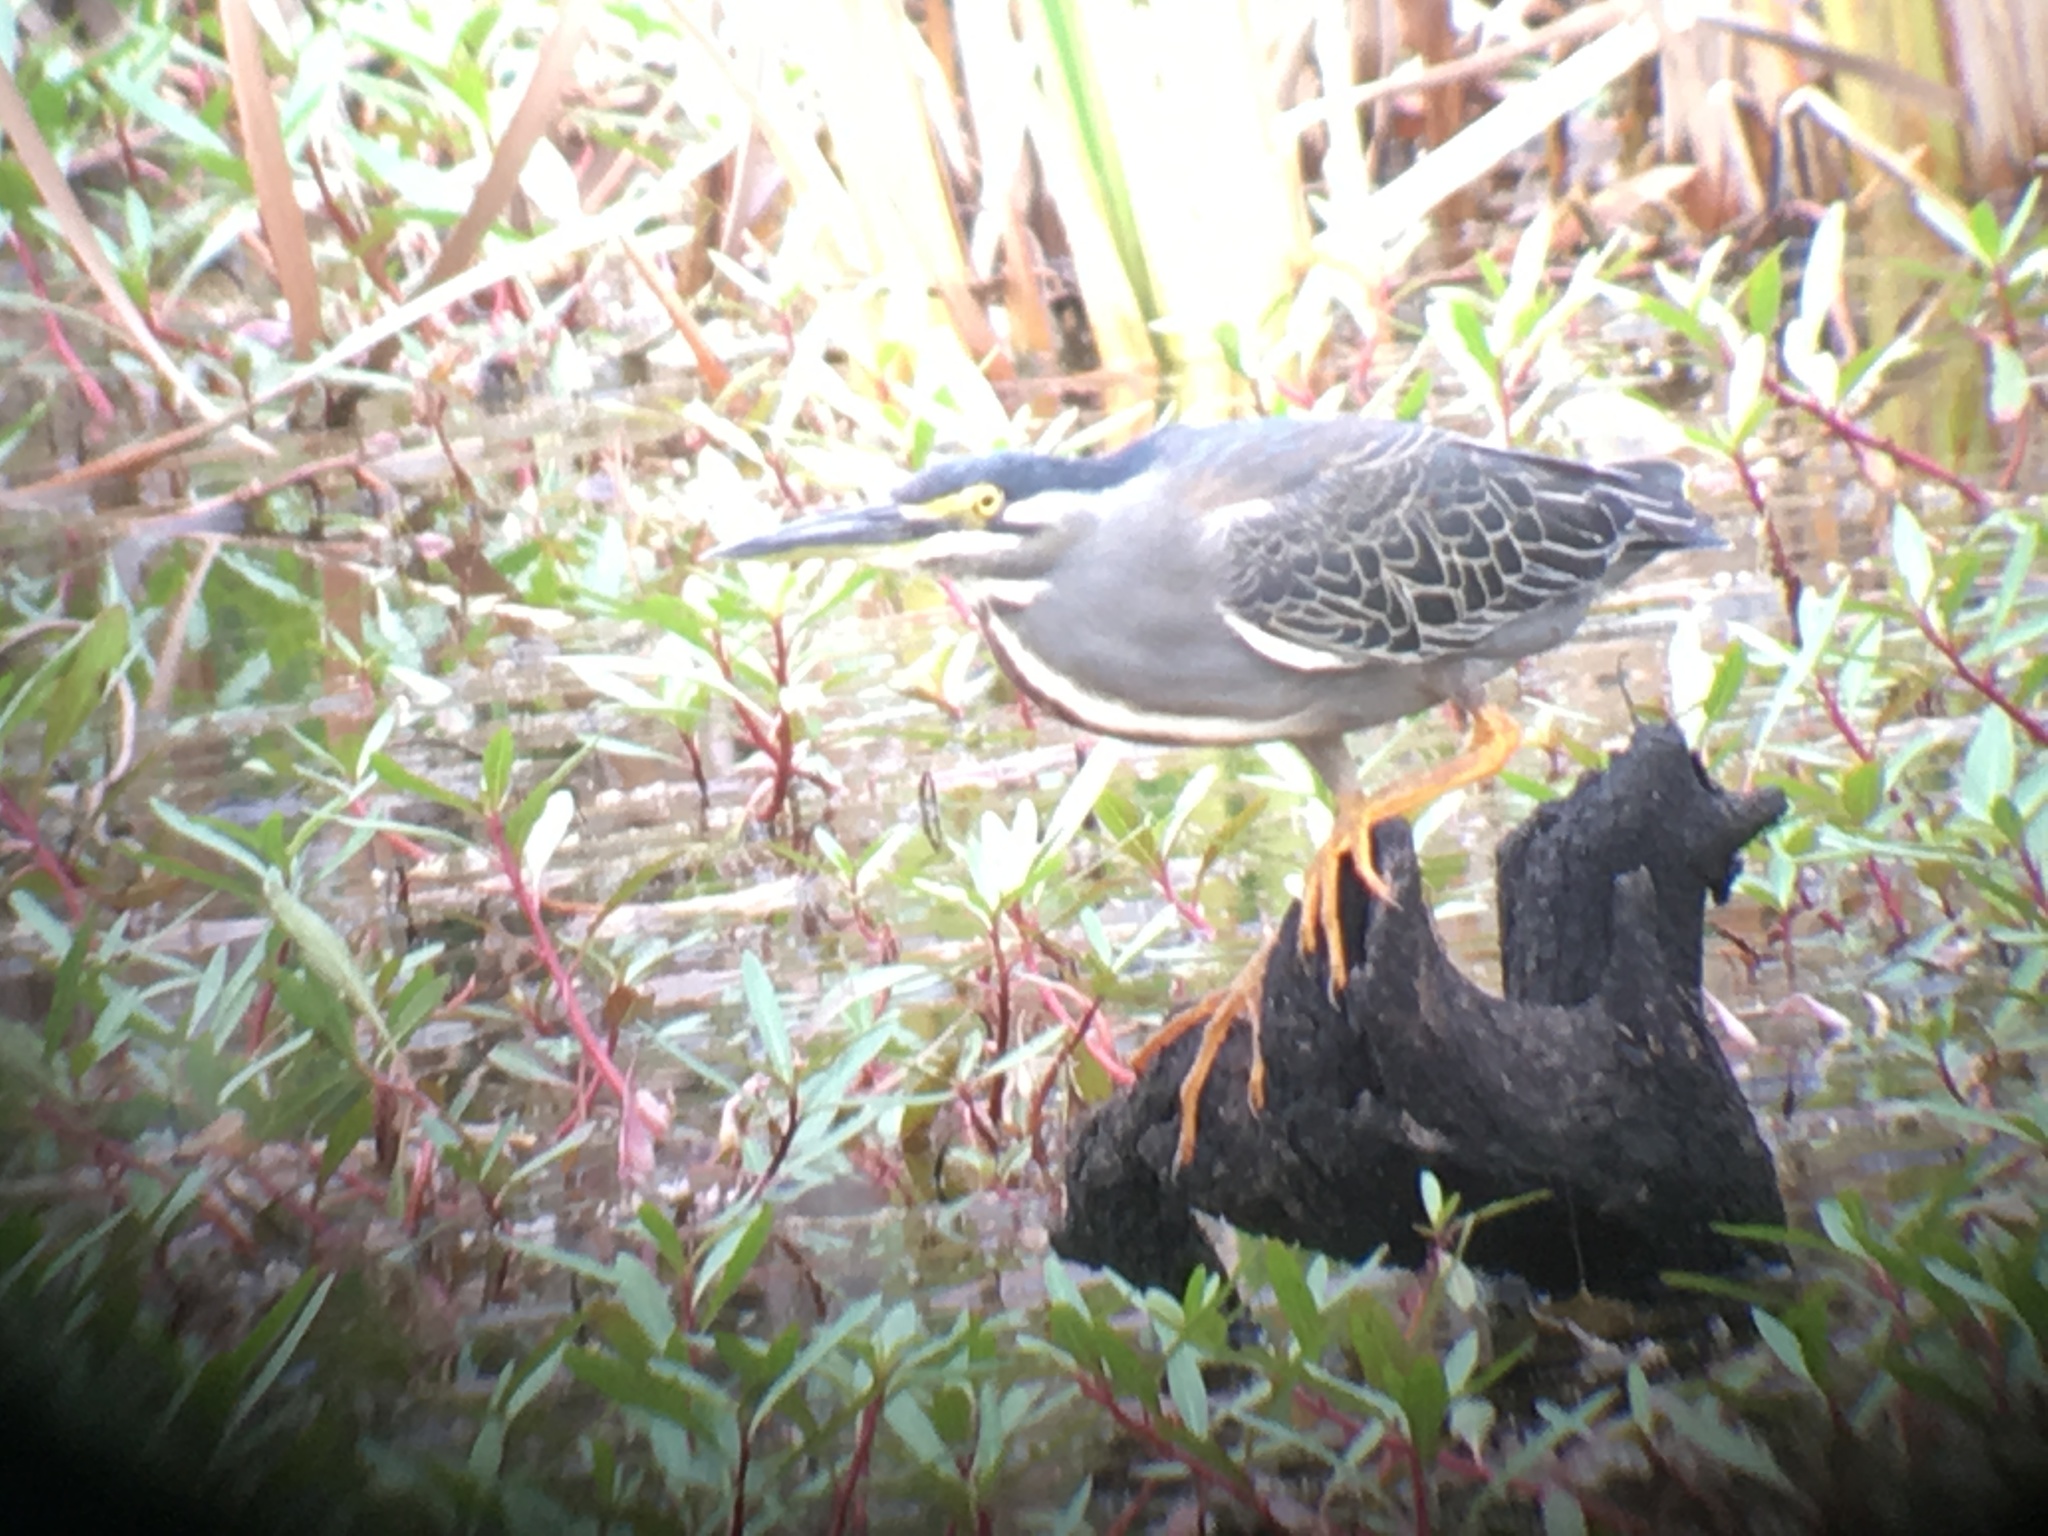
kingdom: Animalia
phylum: Chordata
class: Aves
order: Pelecaniformes
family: Ardeidae
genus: Butorides
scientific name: Butorides striata
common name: Striated heron
